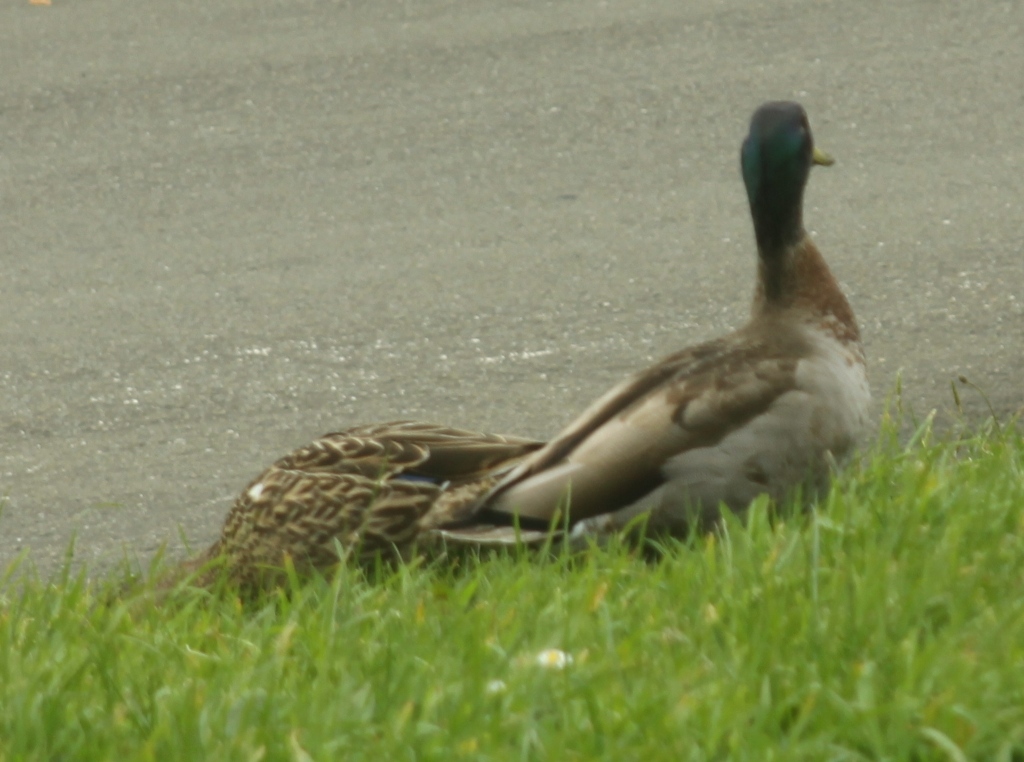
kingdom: Animalia
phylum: Chordata
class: Aves
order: Anseriformes
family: Anatidae
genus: Anas
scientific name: Anas platyrhynchos
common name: Mallard
